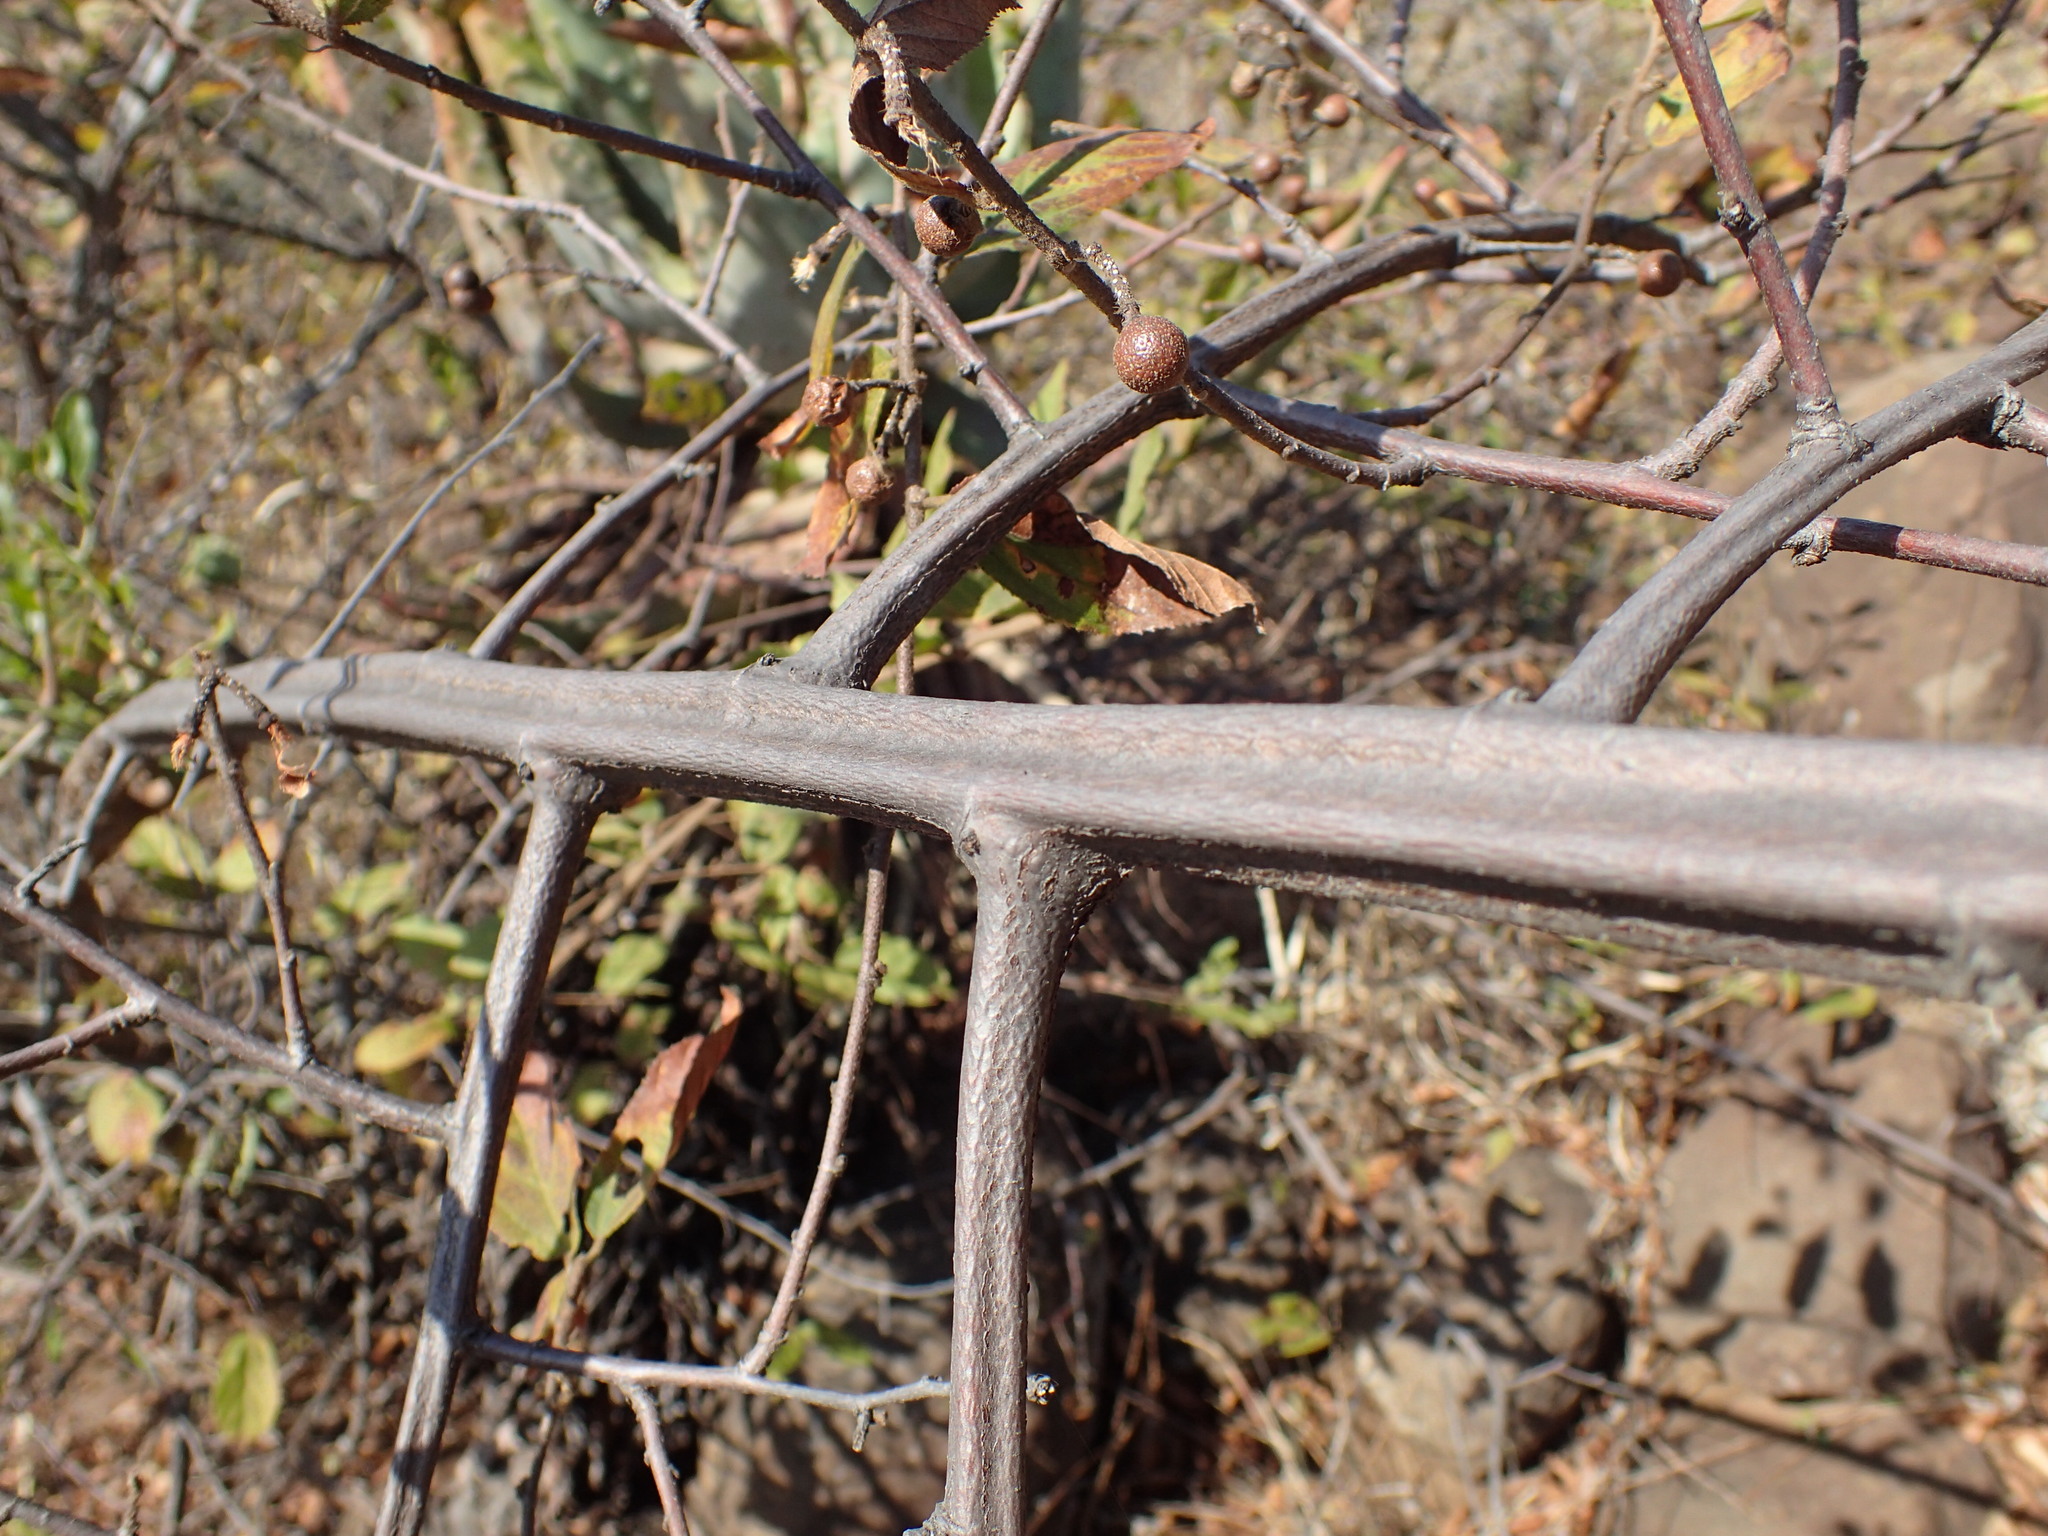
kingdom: Plantae
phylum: Tracheophyta
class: Magnoliopsida
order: Malvales
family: Malvaceae
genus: Grewia
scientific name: Grewia flavescens
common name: Sandpaper raisin
